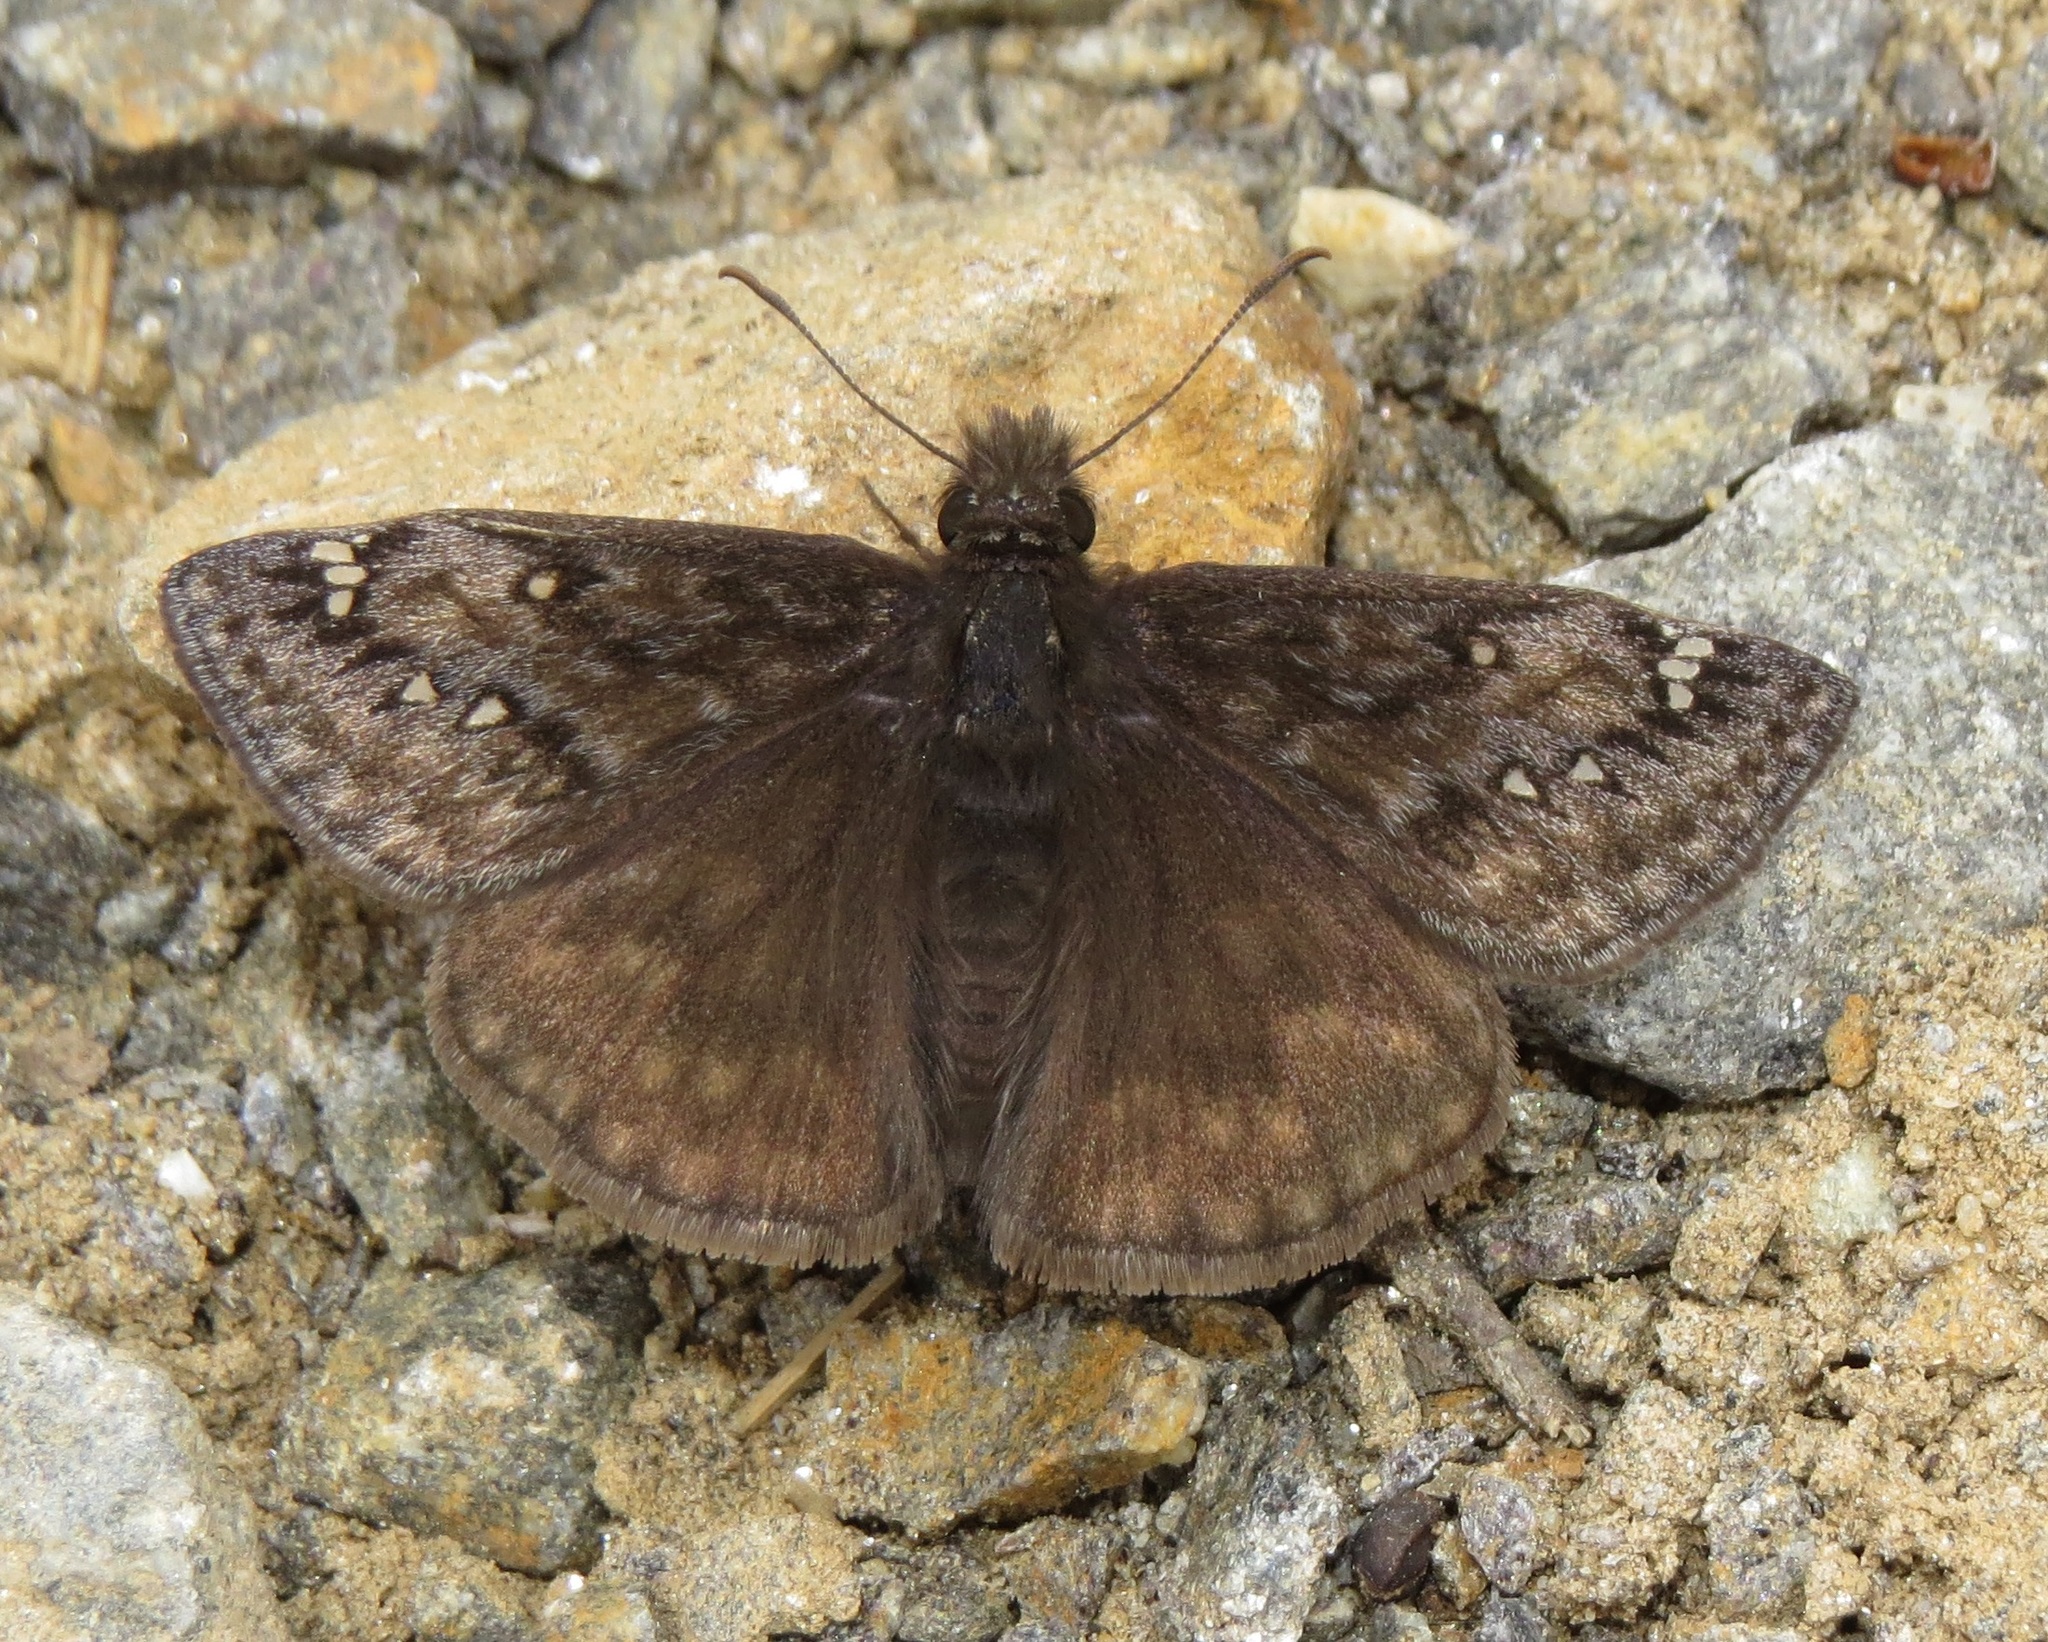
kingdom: Animalia
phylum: Arthropoda
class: Insecta
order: Lepidoptera
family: Hesperiidae
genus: Erynnis
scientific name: Erynnis juvenalis
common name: Juvenal's duskywing
